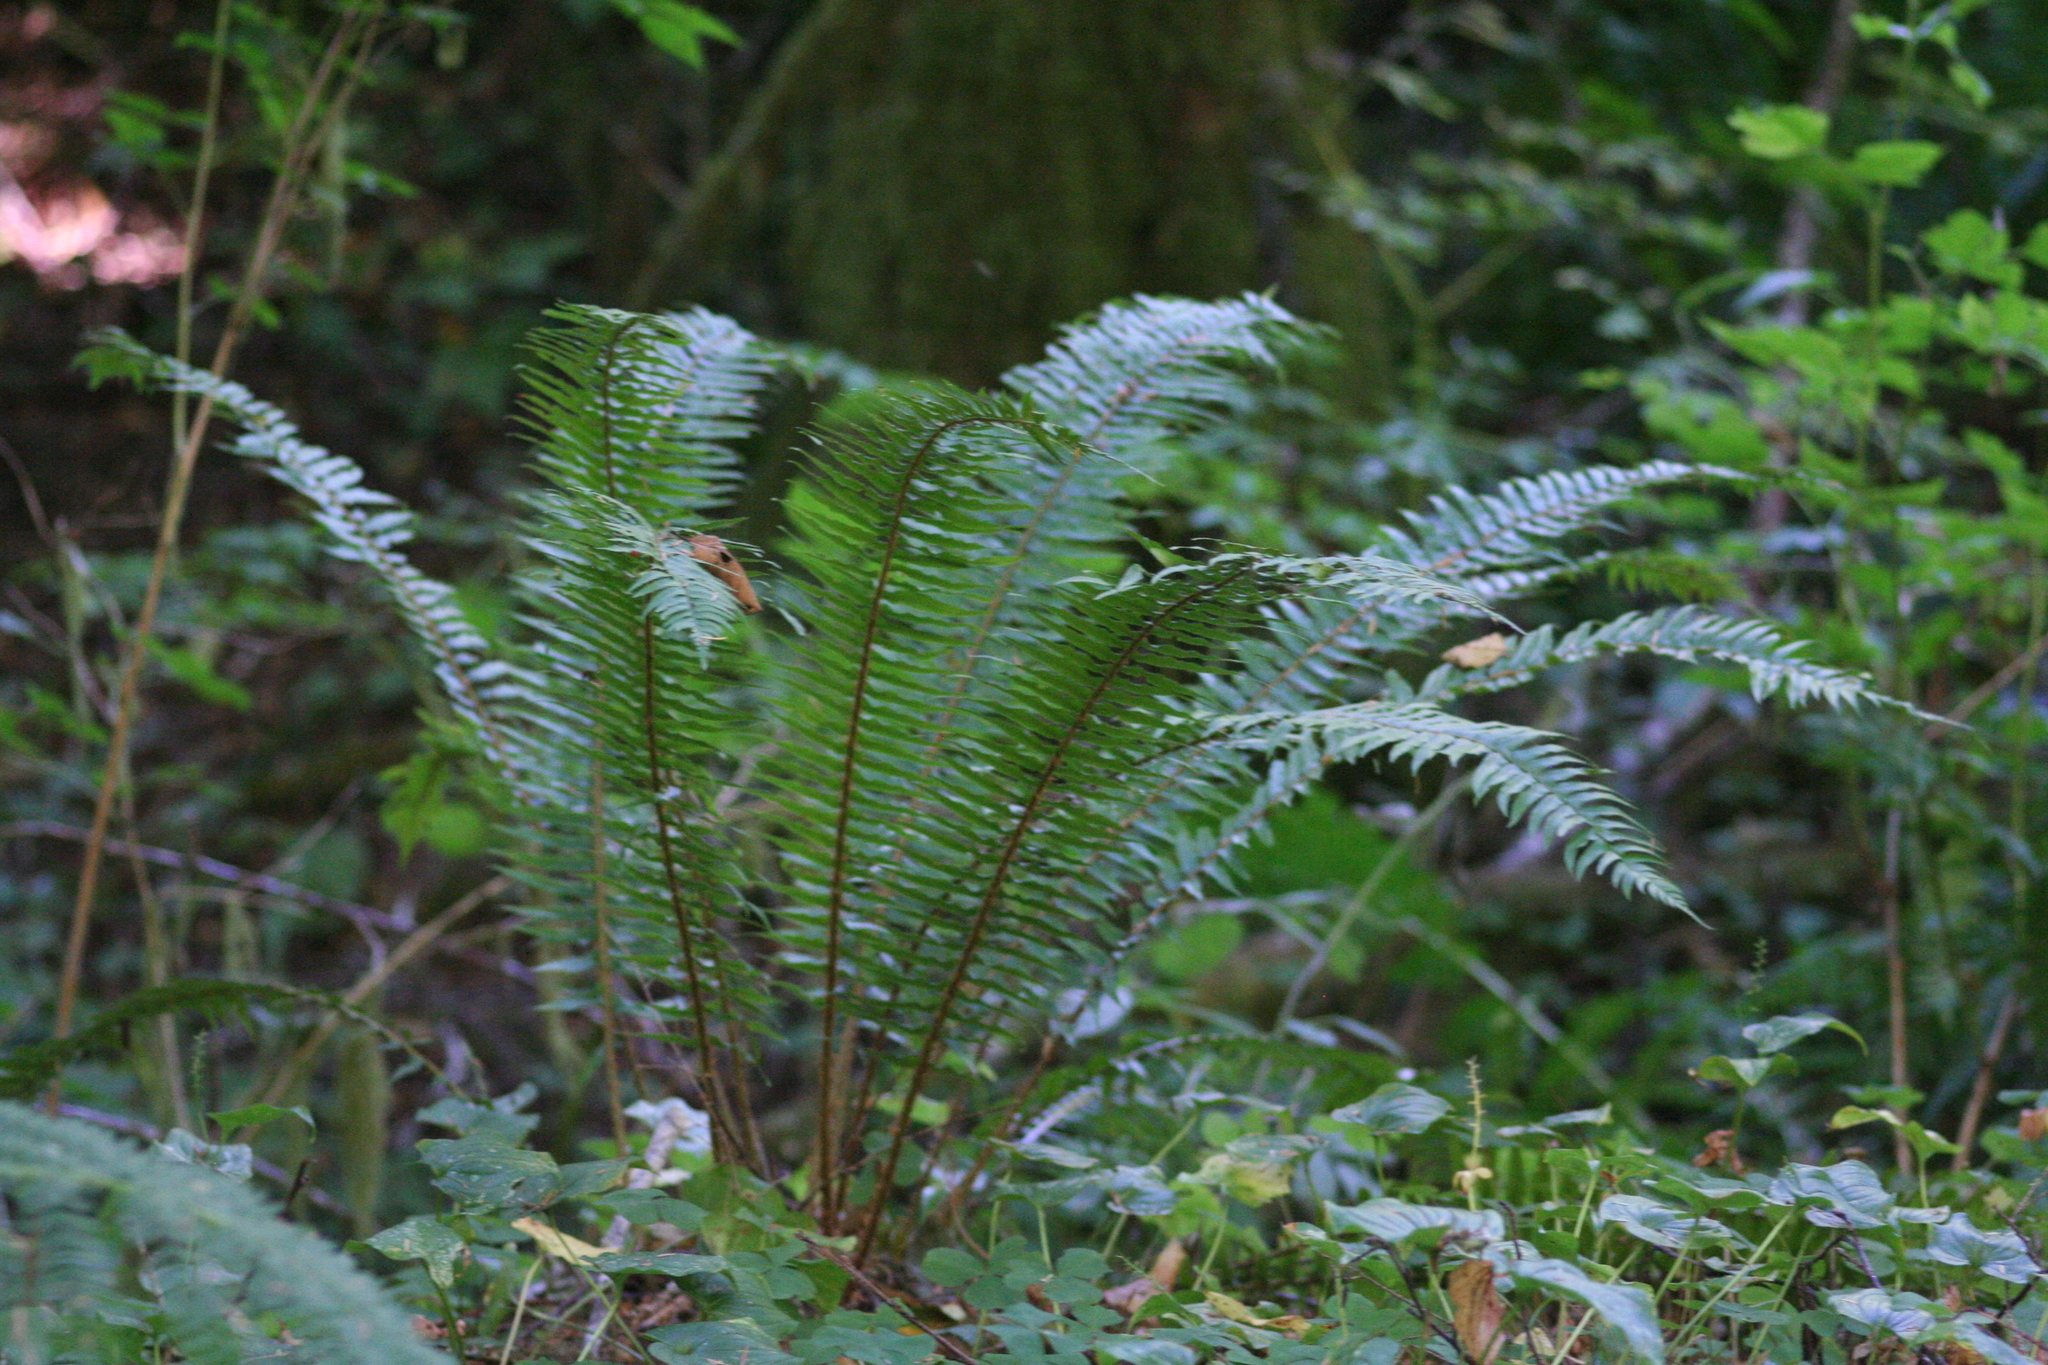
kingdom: Plantae
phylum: Tracheophyta
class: Polypodiopsida
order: Polypodiales
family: Dryopteridaceae
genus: Polystichum
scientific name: Polystichum munitum
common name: Western sword-fern
